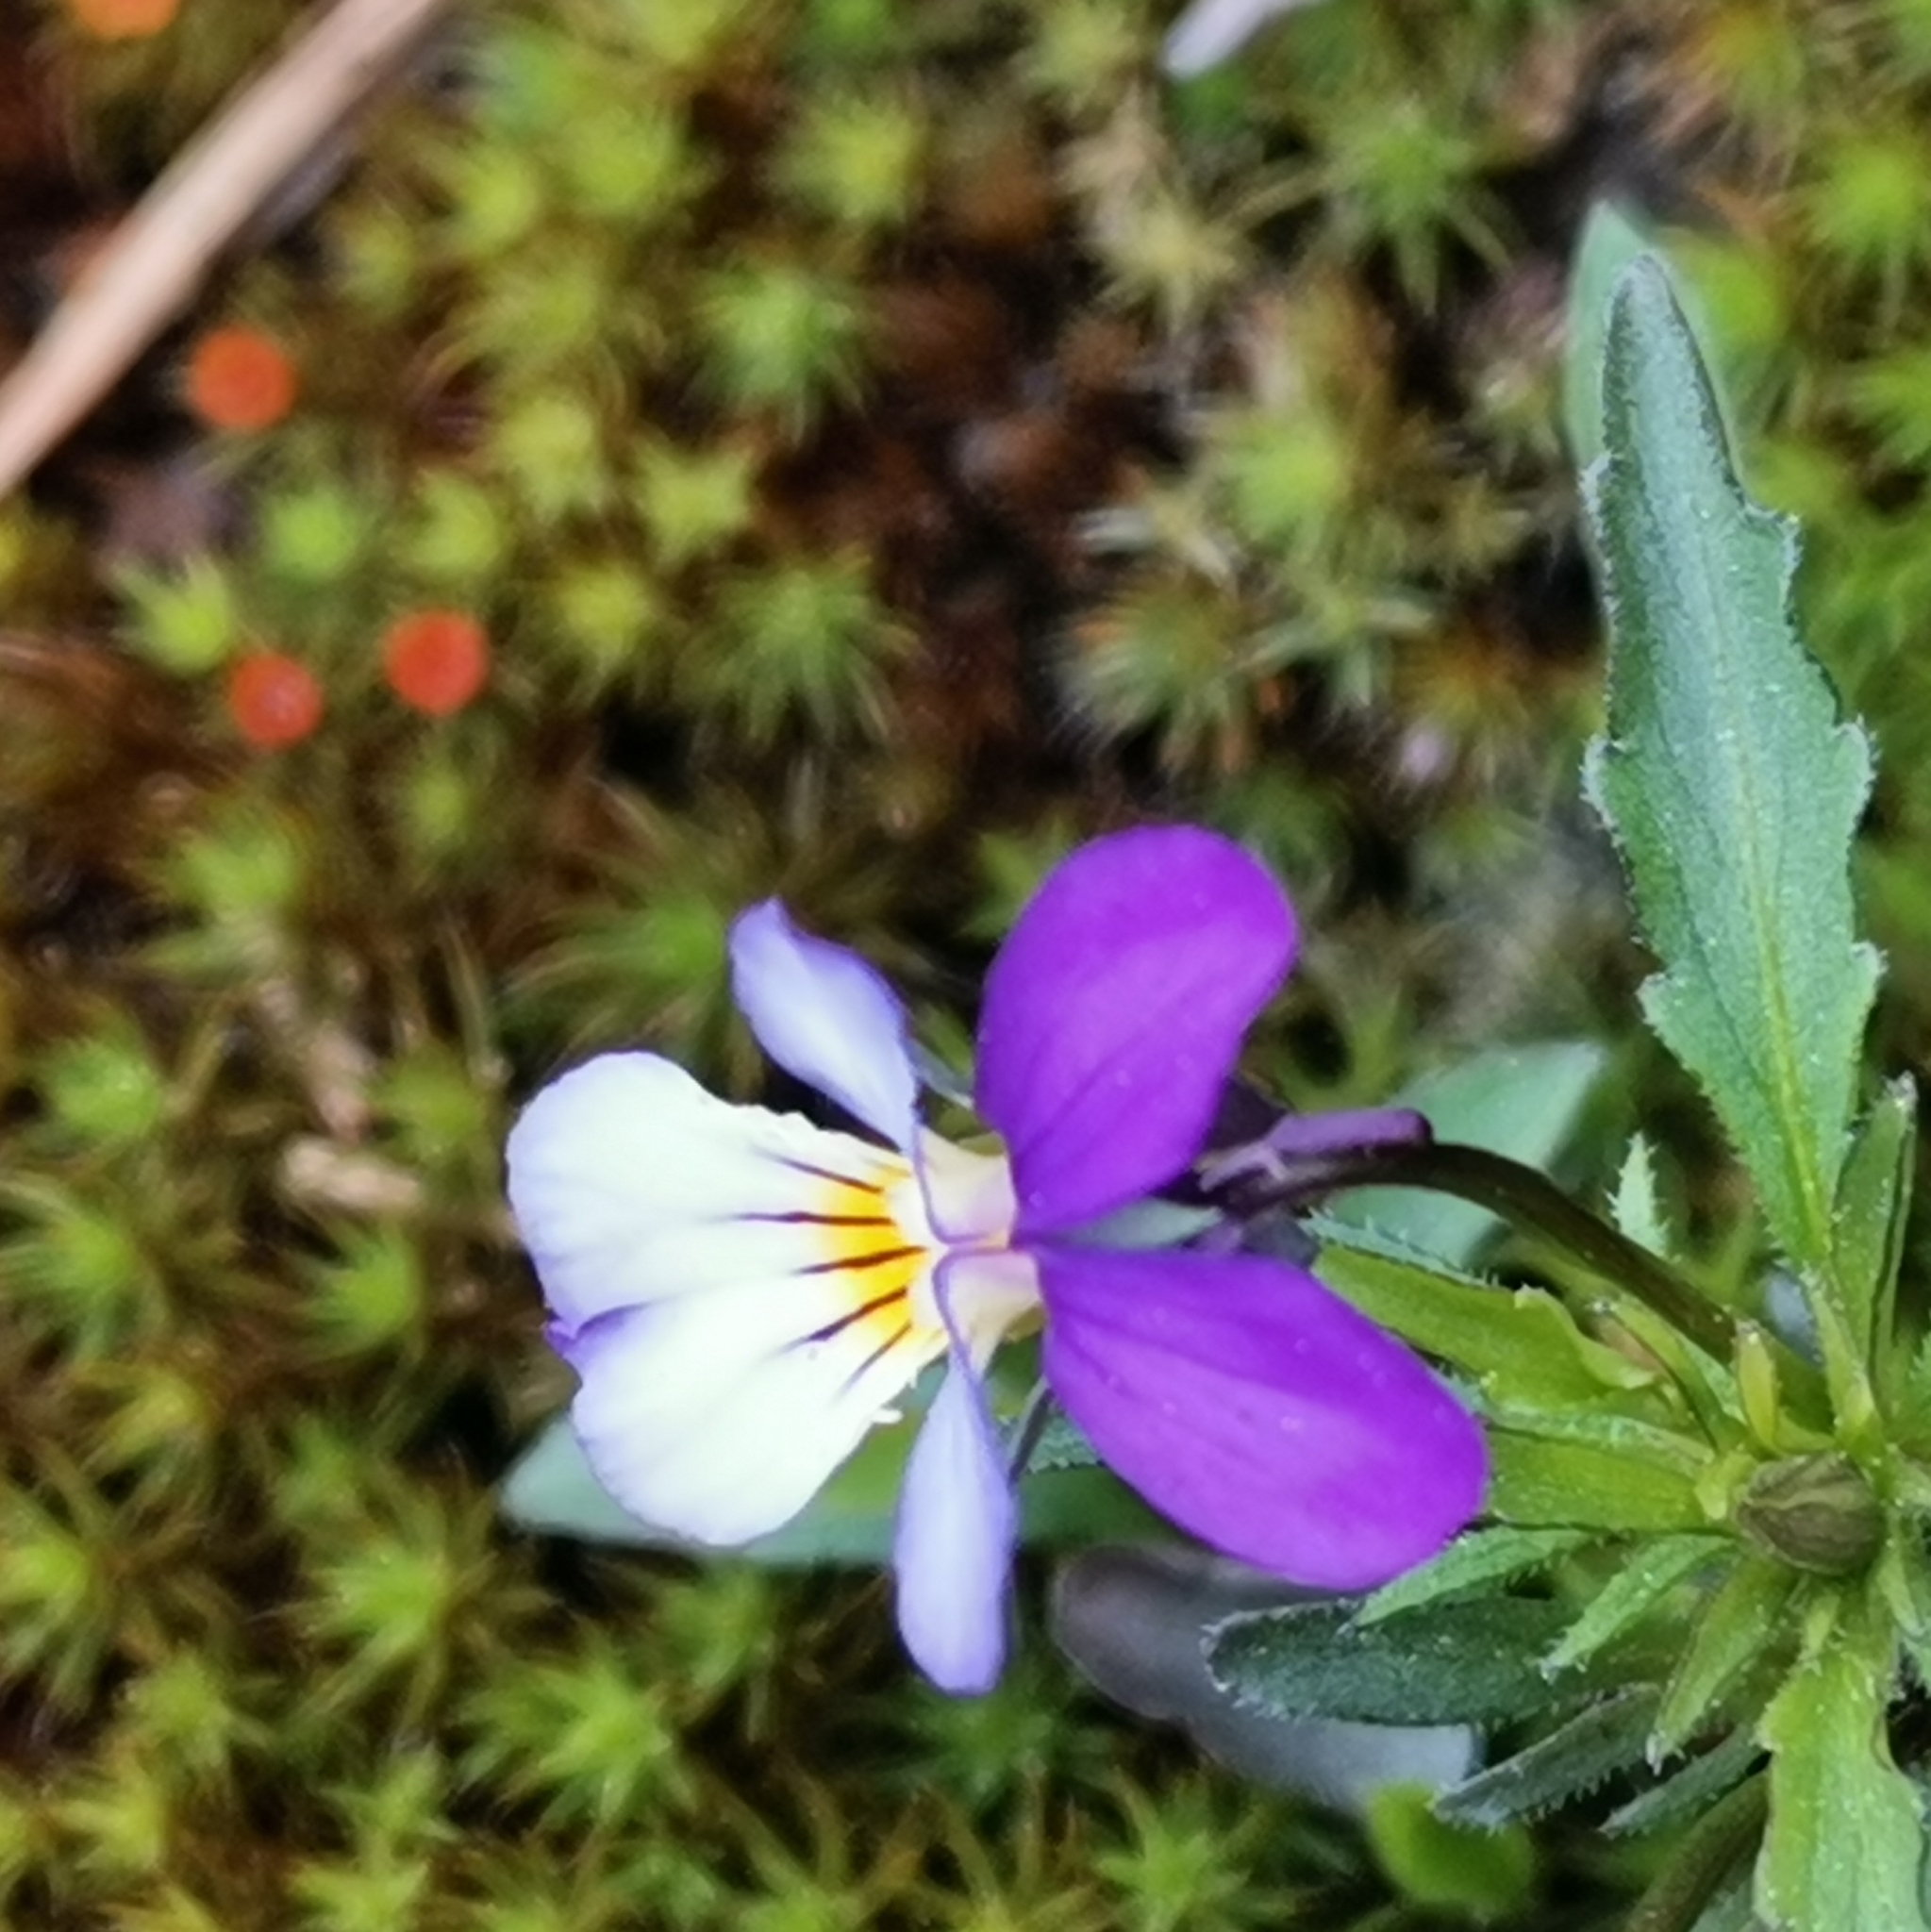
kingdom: Plantae
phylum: Tracheophyta
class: Magnoliopsida
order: Malpighiales
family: Violaceae
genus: Viola
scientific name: Viola tricolor
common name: Pansy
